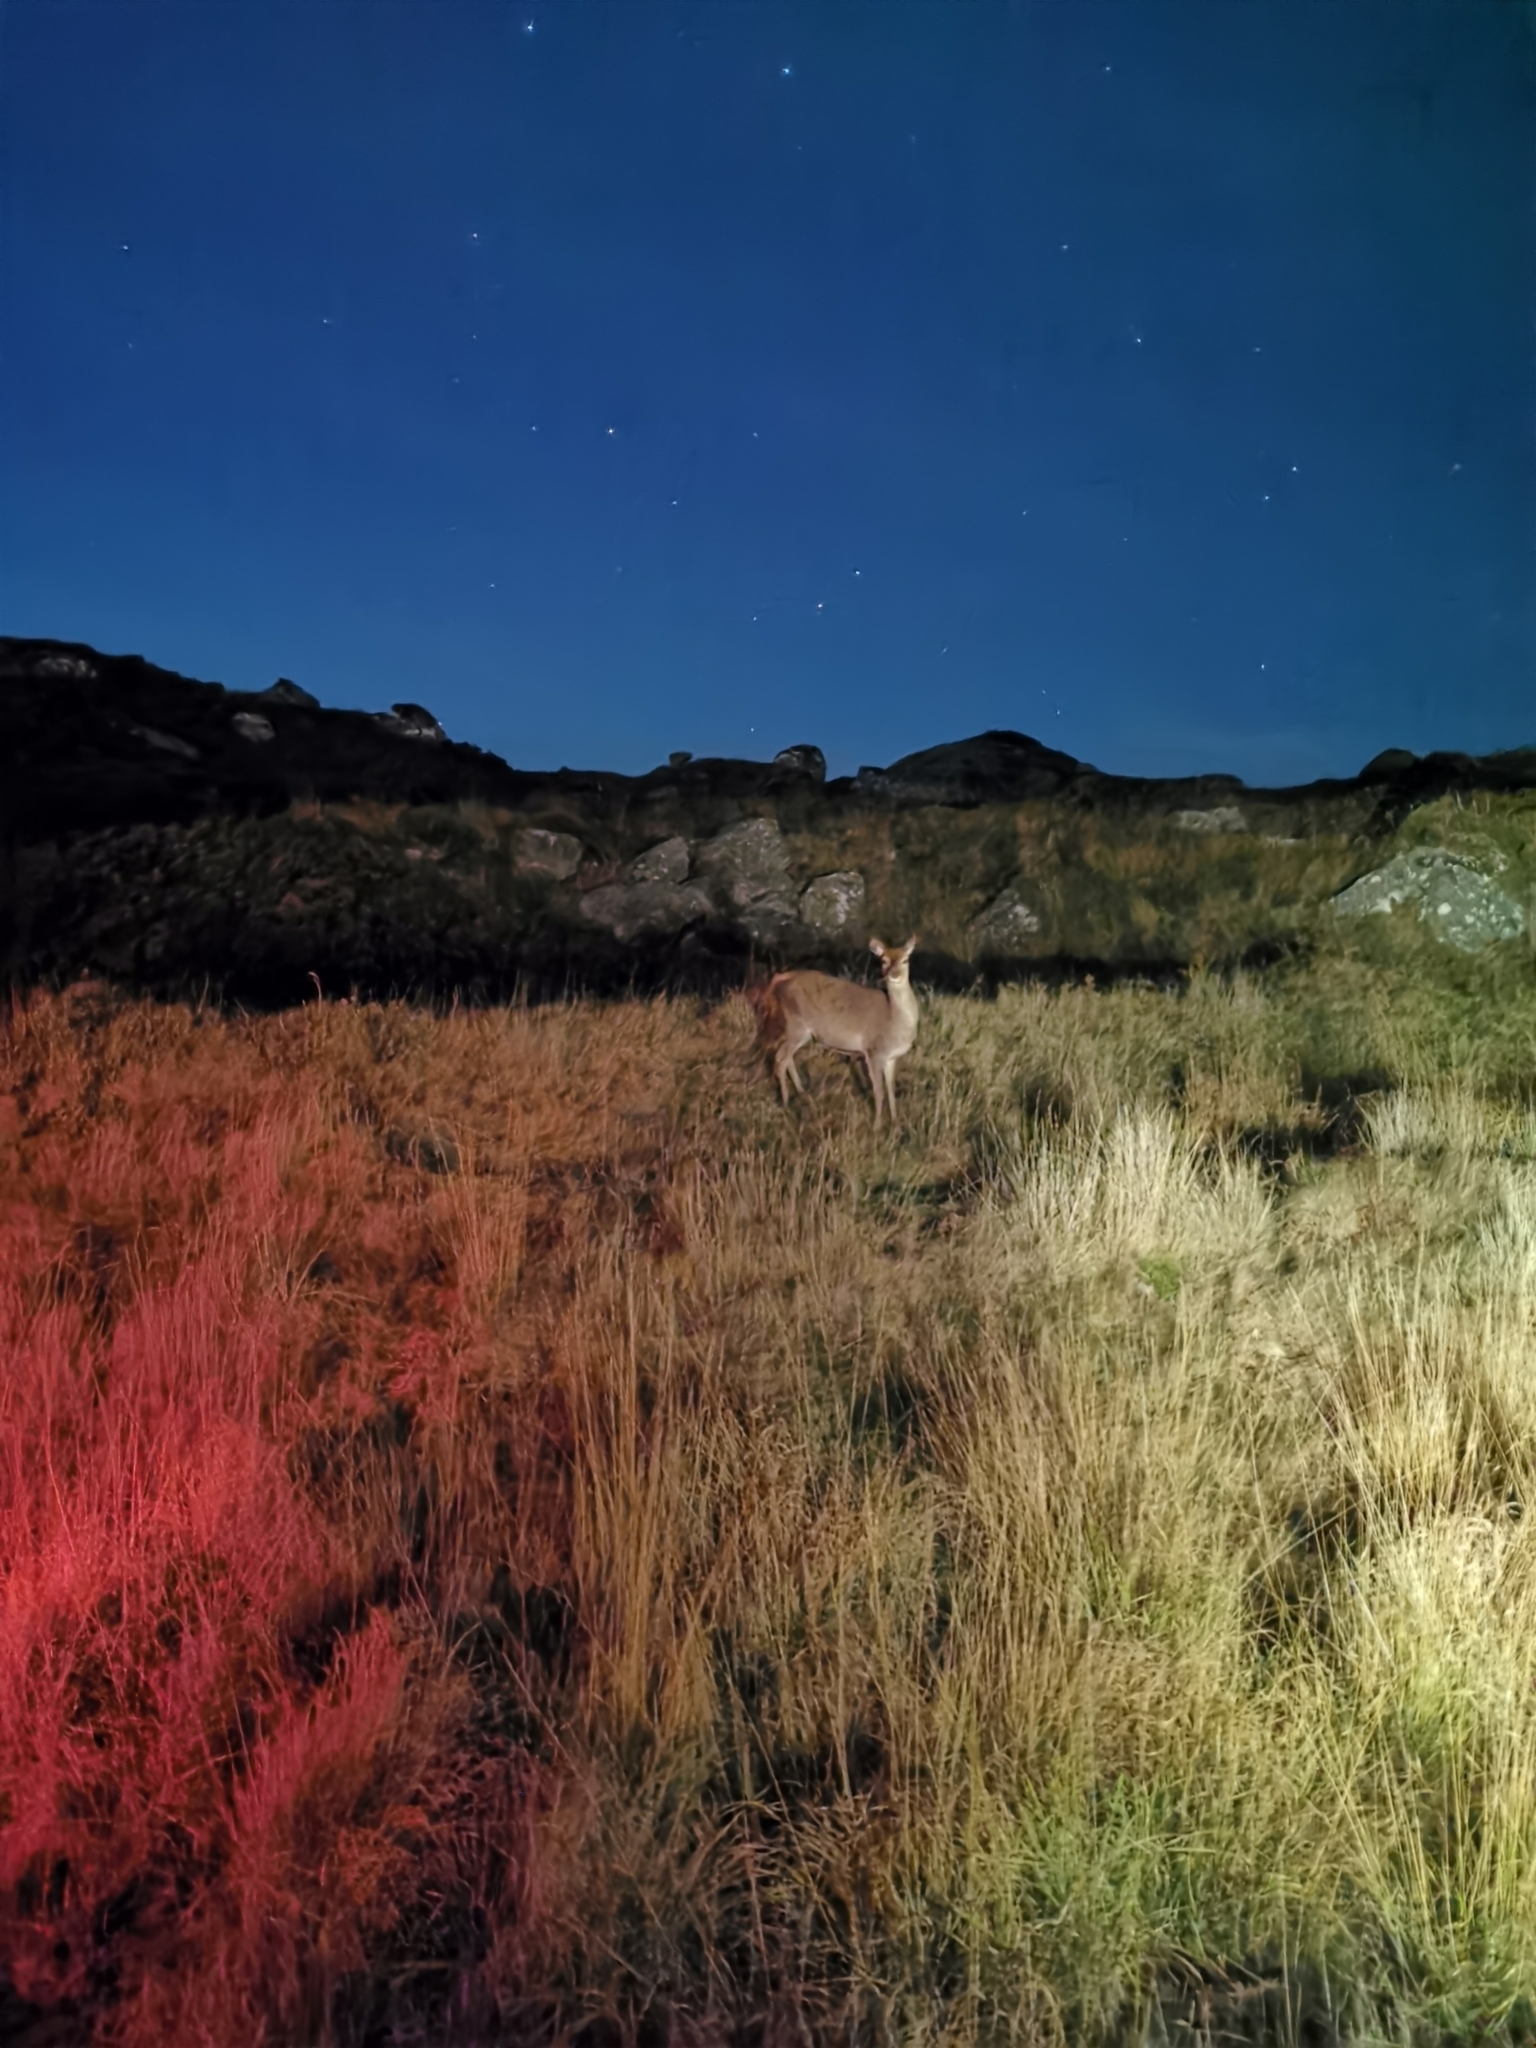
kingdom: Animalia
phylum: Chordata
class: Mammalia
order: Artiodactyla
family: Cervidae
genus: Cervus
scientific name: Cervus elaphus
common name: Red deer
